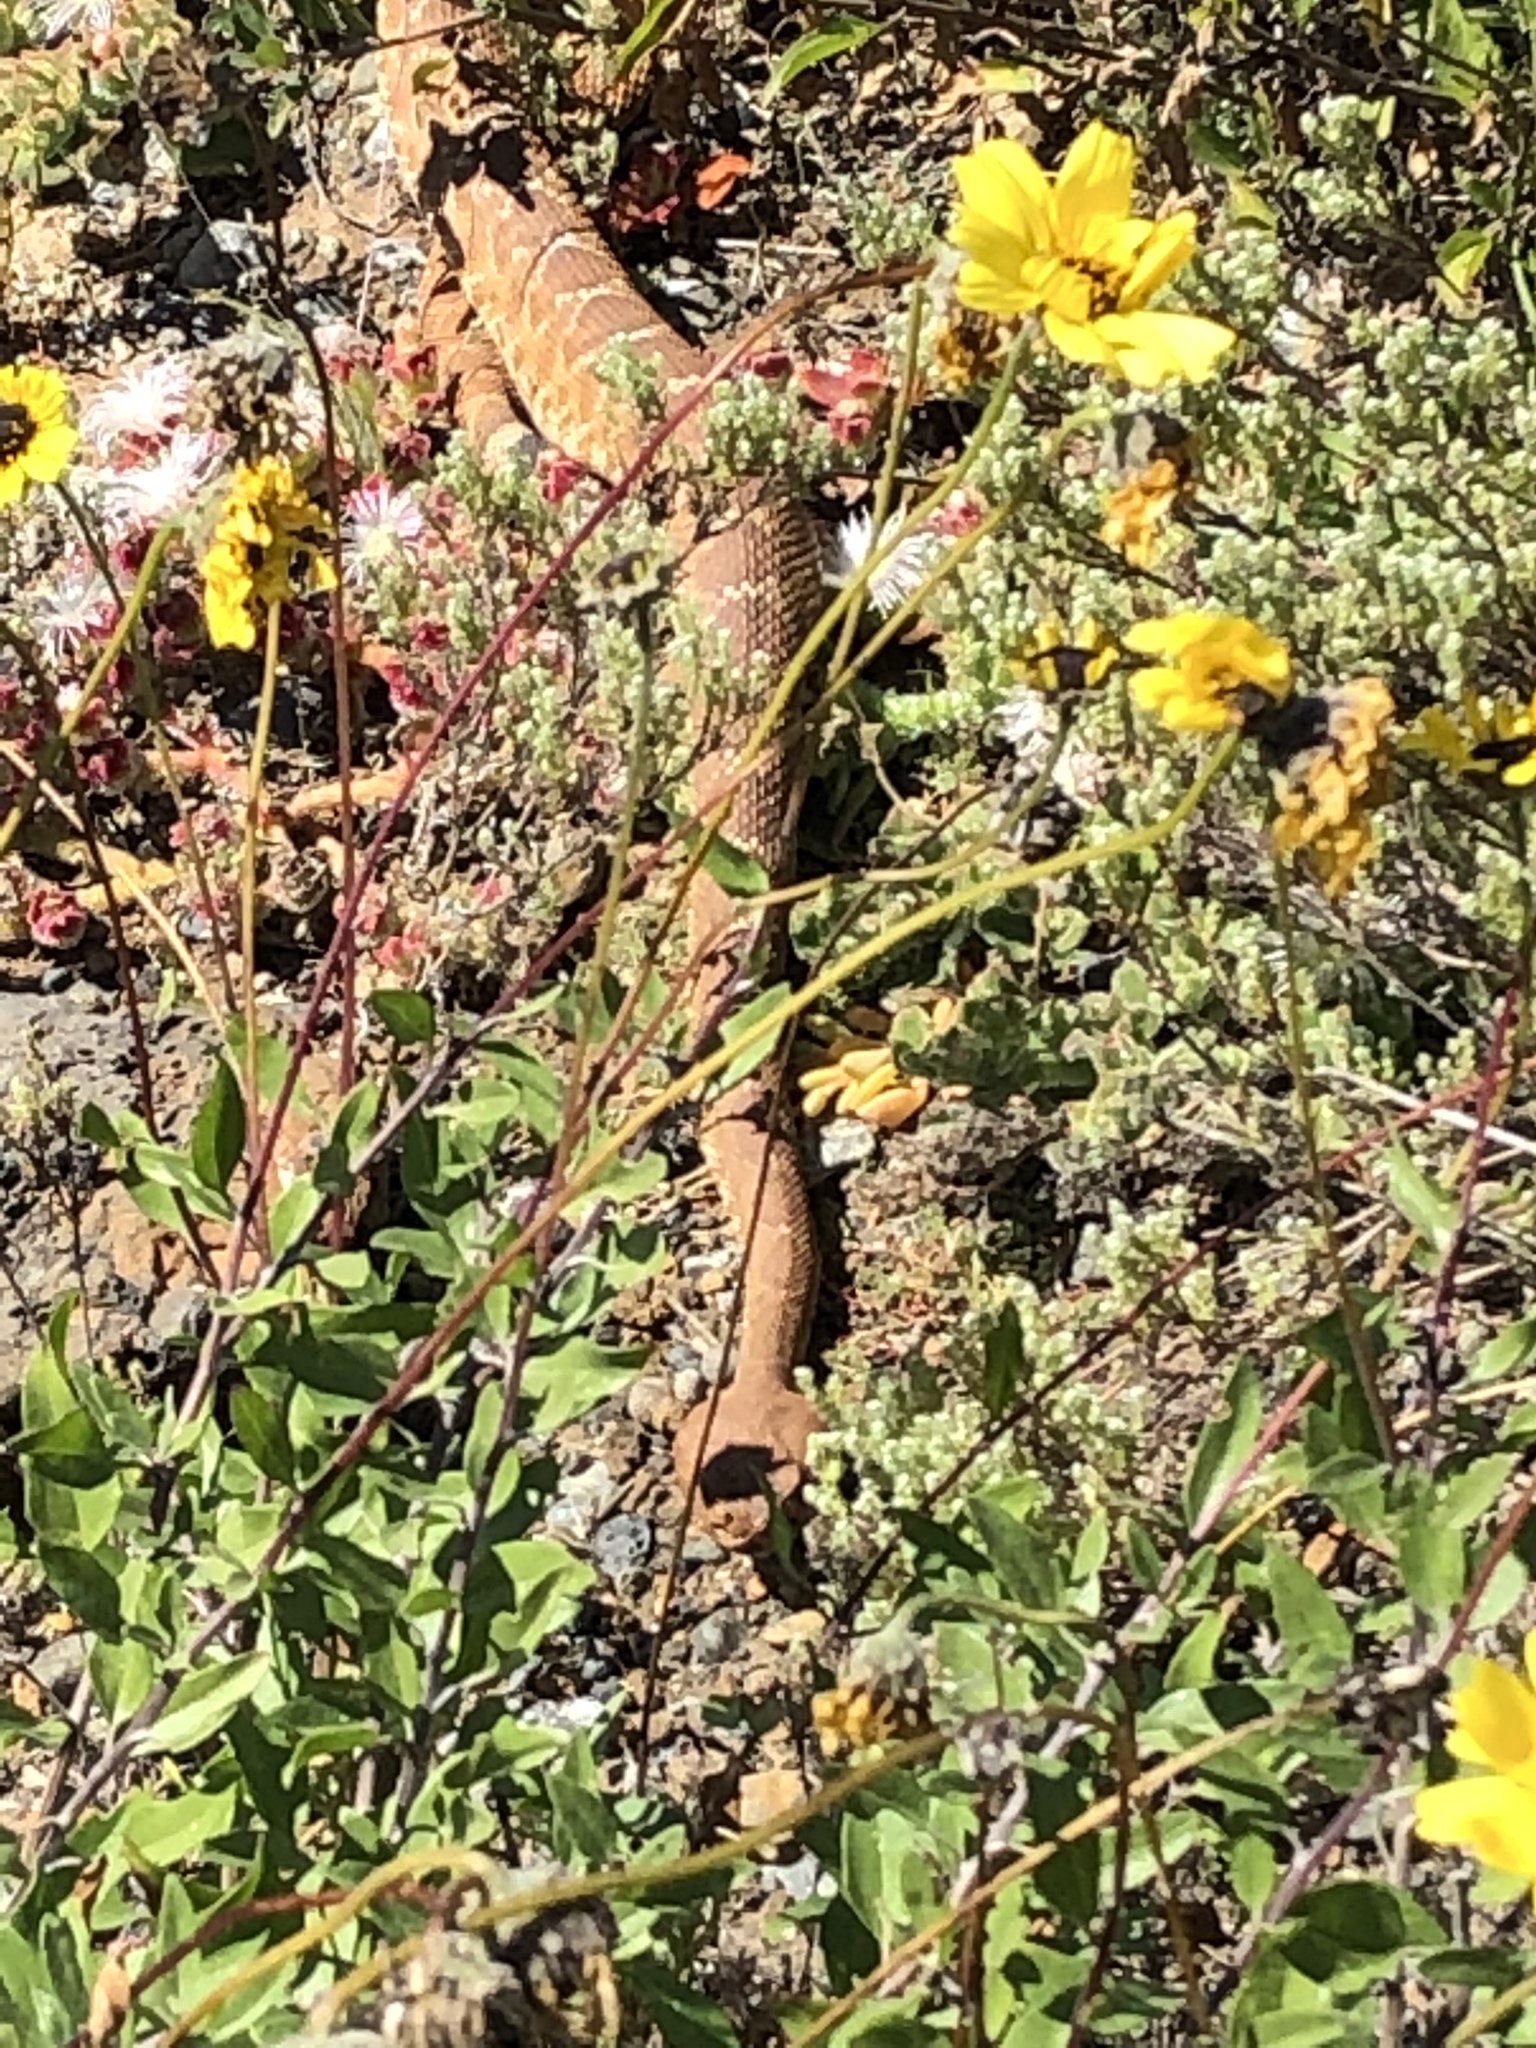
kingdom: Animalia
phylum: Chordata
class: Squamata
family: Viperidae
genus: Crotalus
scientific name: Crotalus ruber
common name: Red diamond rattlesnake
